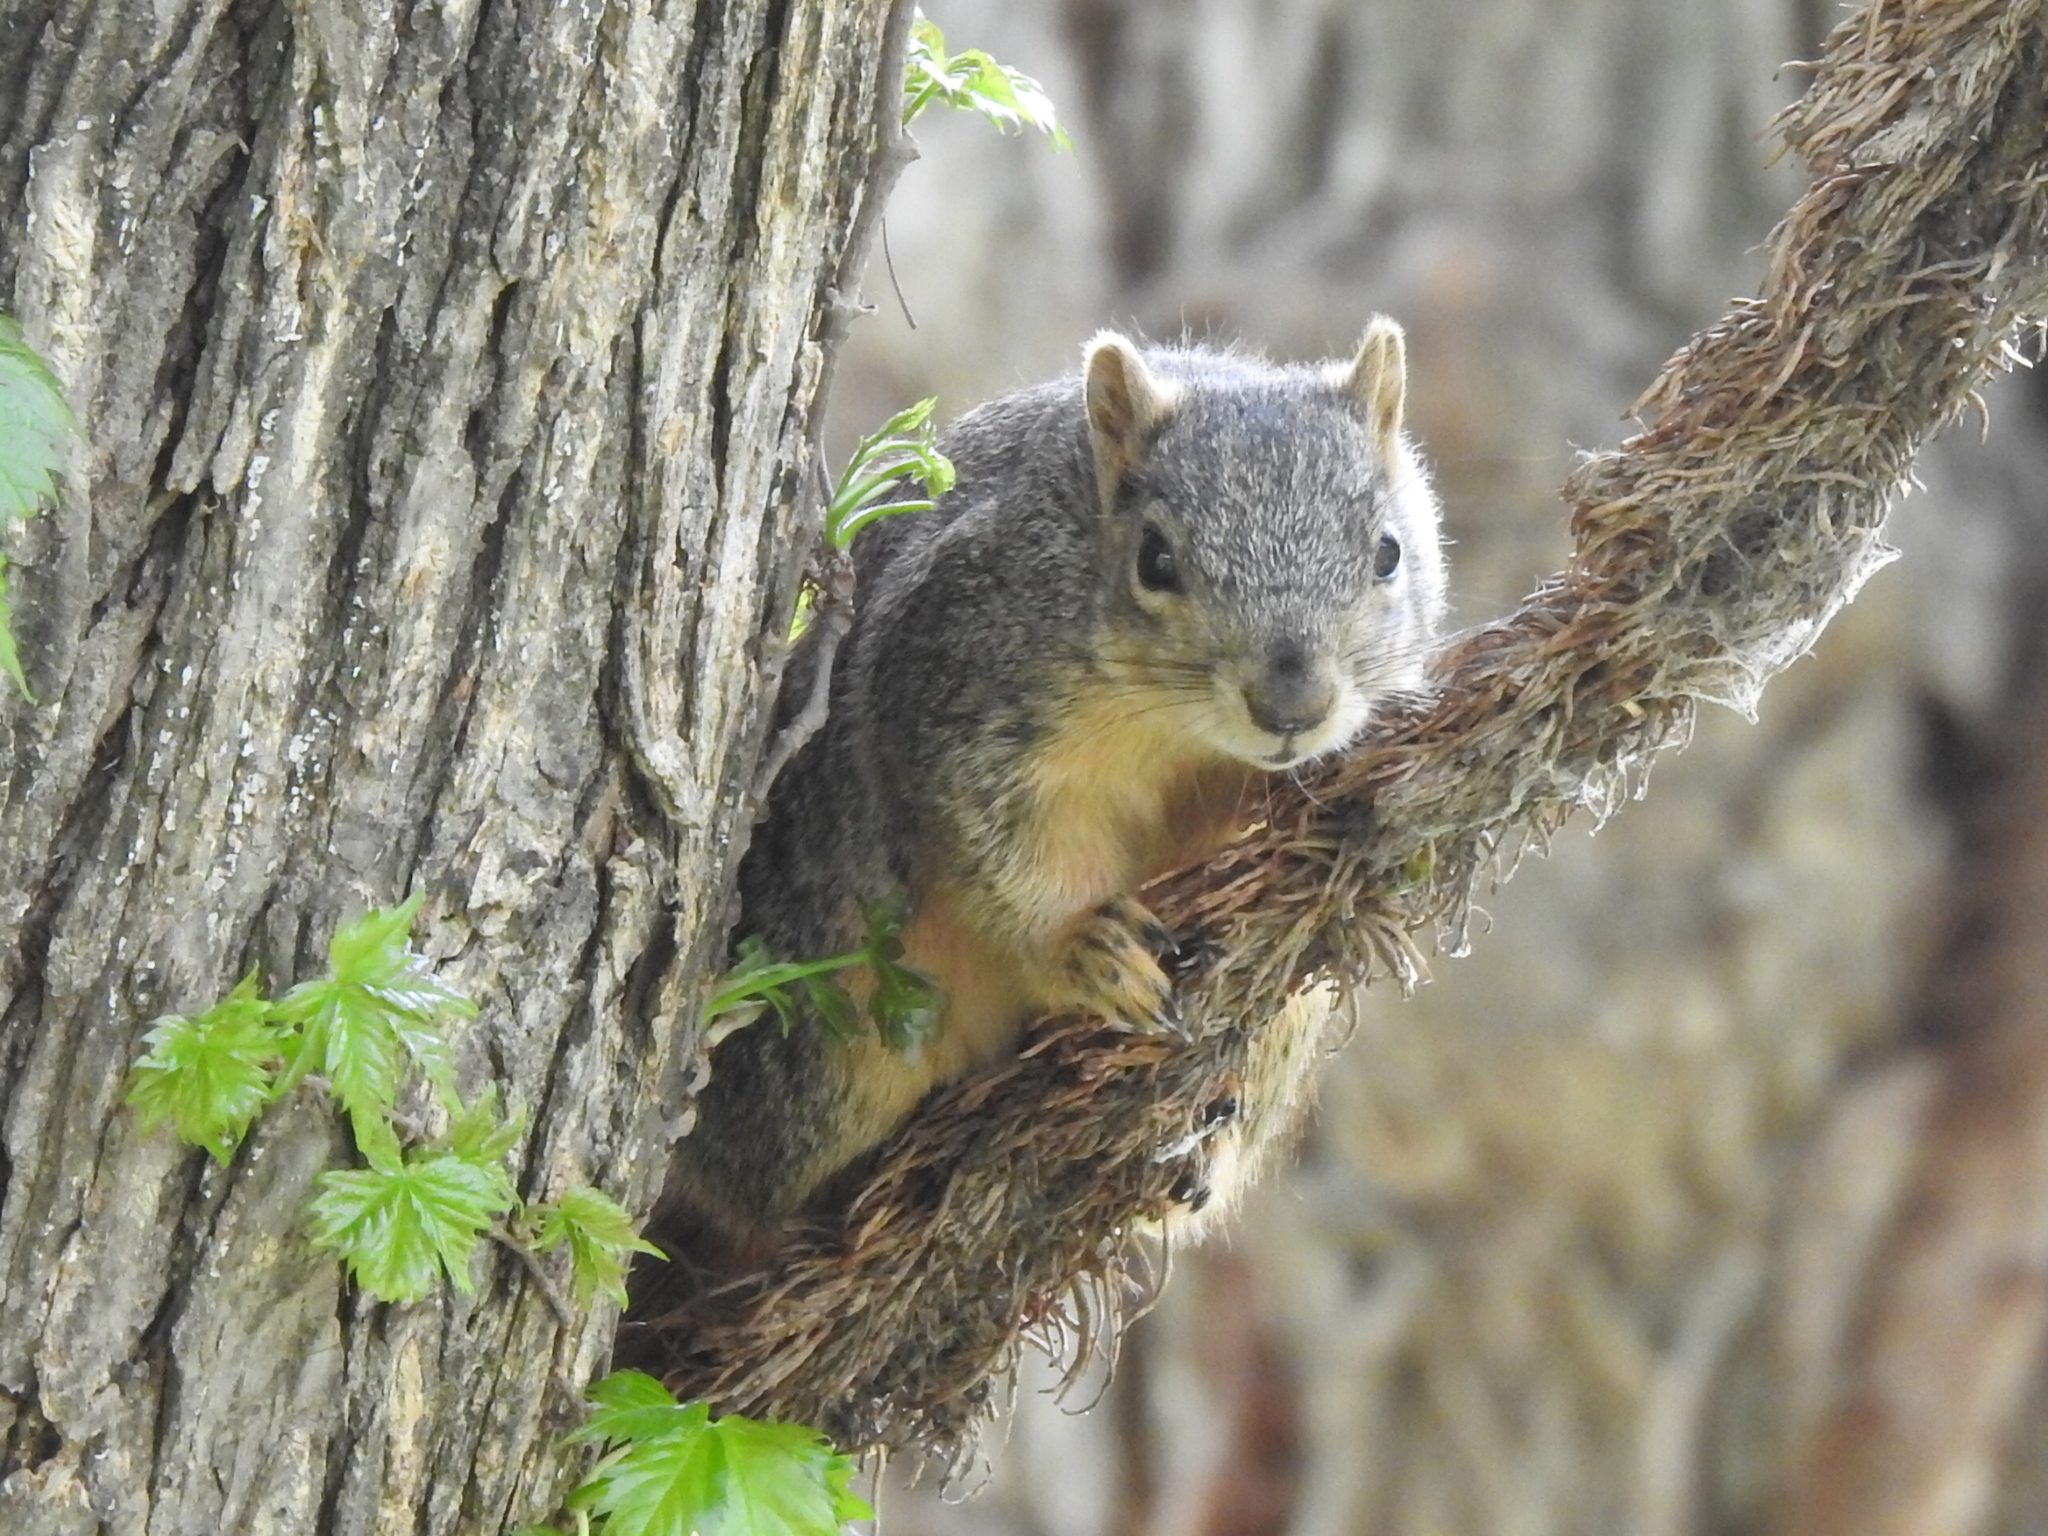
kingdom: Animalia
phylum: Chordata
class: Mammalia
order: Rodentia
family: Sciuridae
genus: Sciurus
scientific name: Sciurus niger
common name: Fox squirrel
